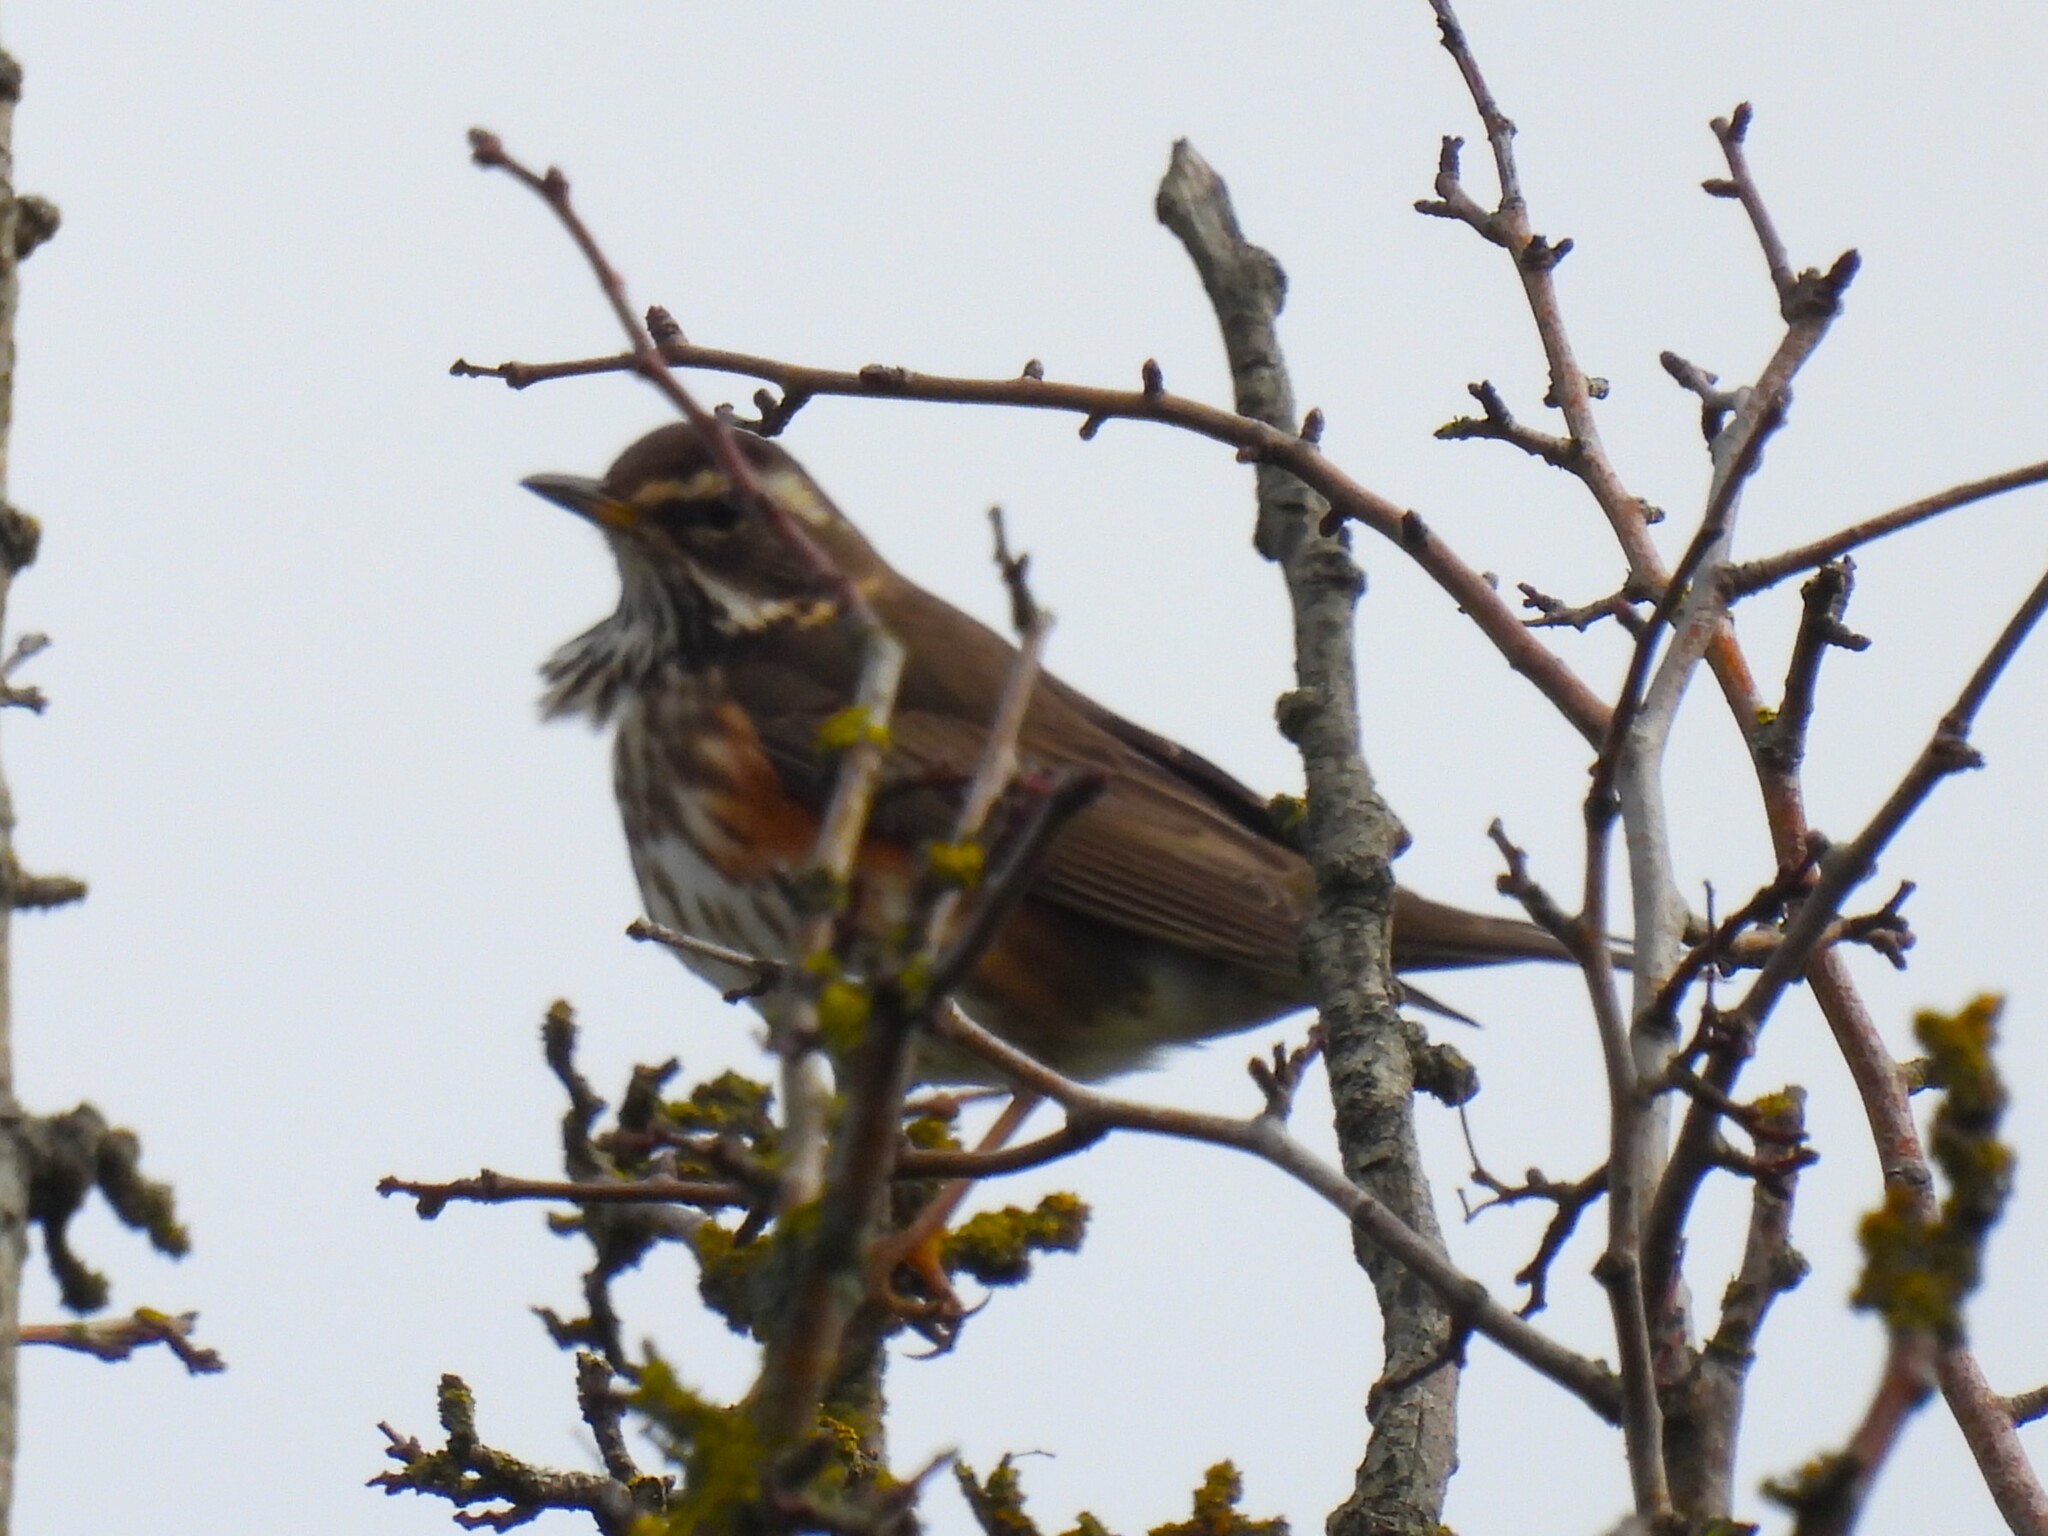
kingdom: Animalia
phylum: Chordata
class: Aves
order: Passeriformes
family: Turdidae
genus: Turdus
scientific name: Turdus iliacus
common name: Redwing
